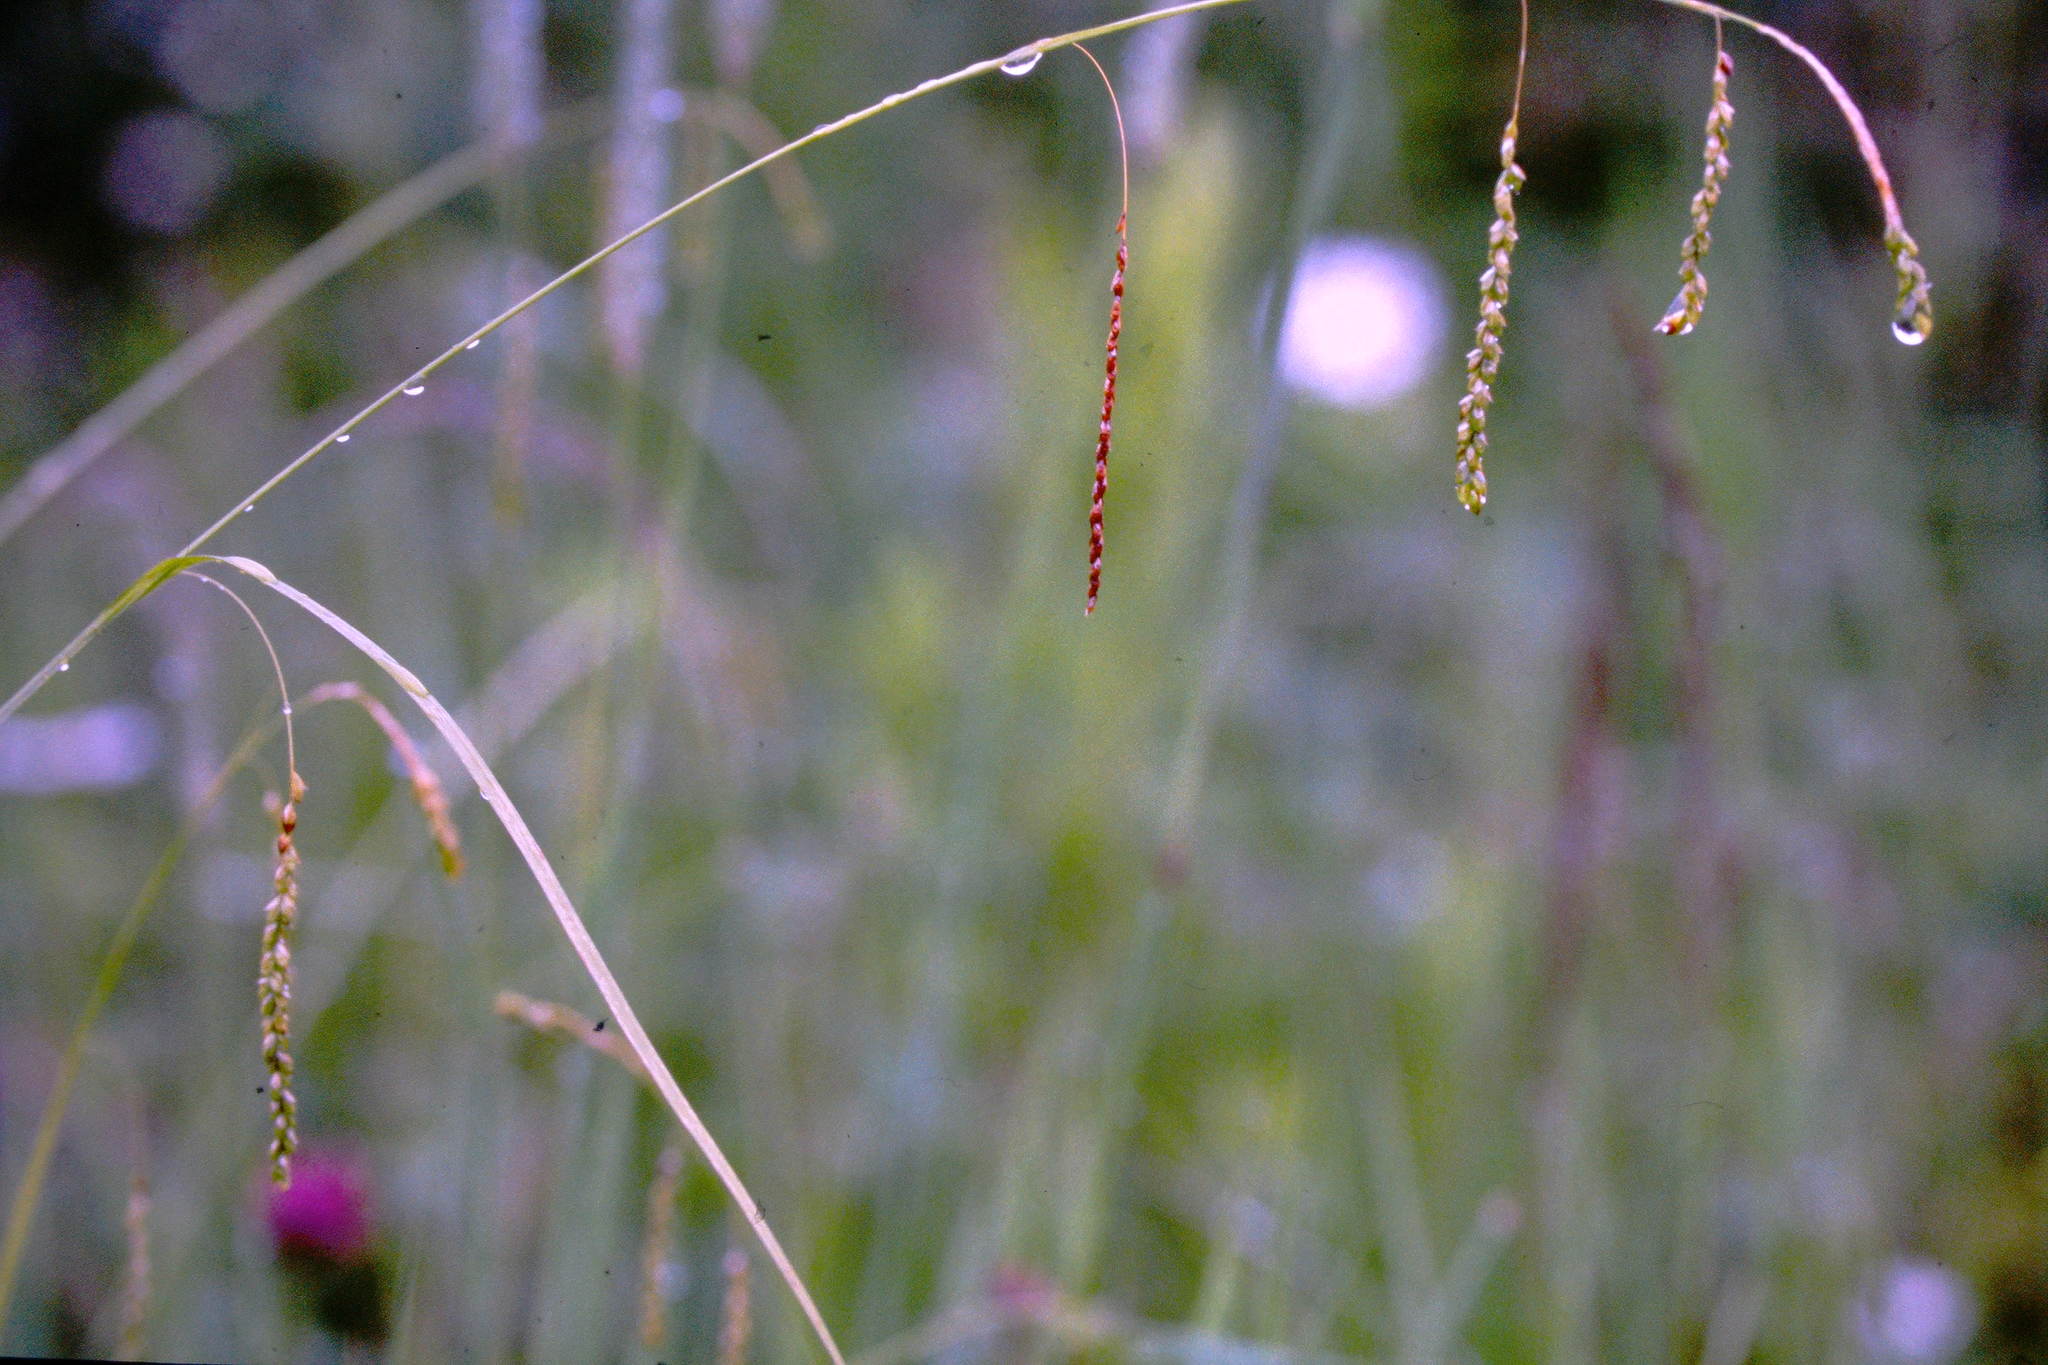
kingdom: Plantae
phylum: Tracheophyta
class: Liliopsida
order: Poales
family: Cyperaceae
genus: Carex
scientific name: Carex gracillima
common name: Graceful sedge
